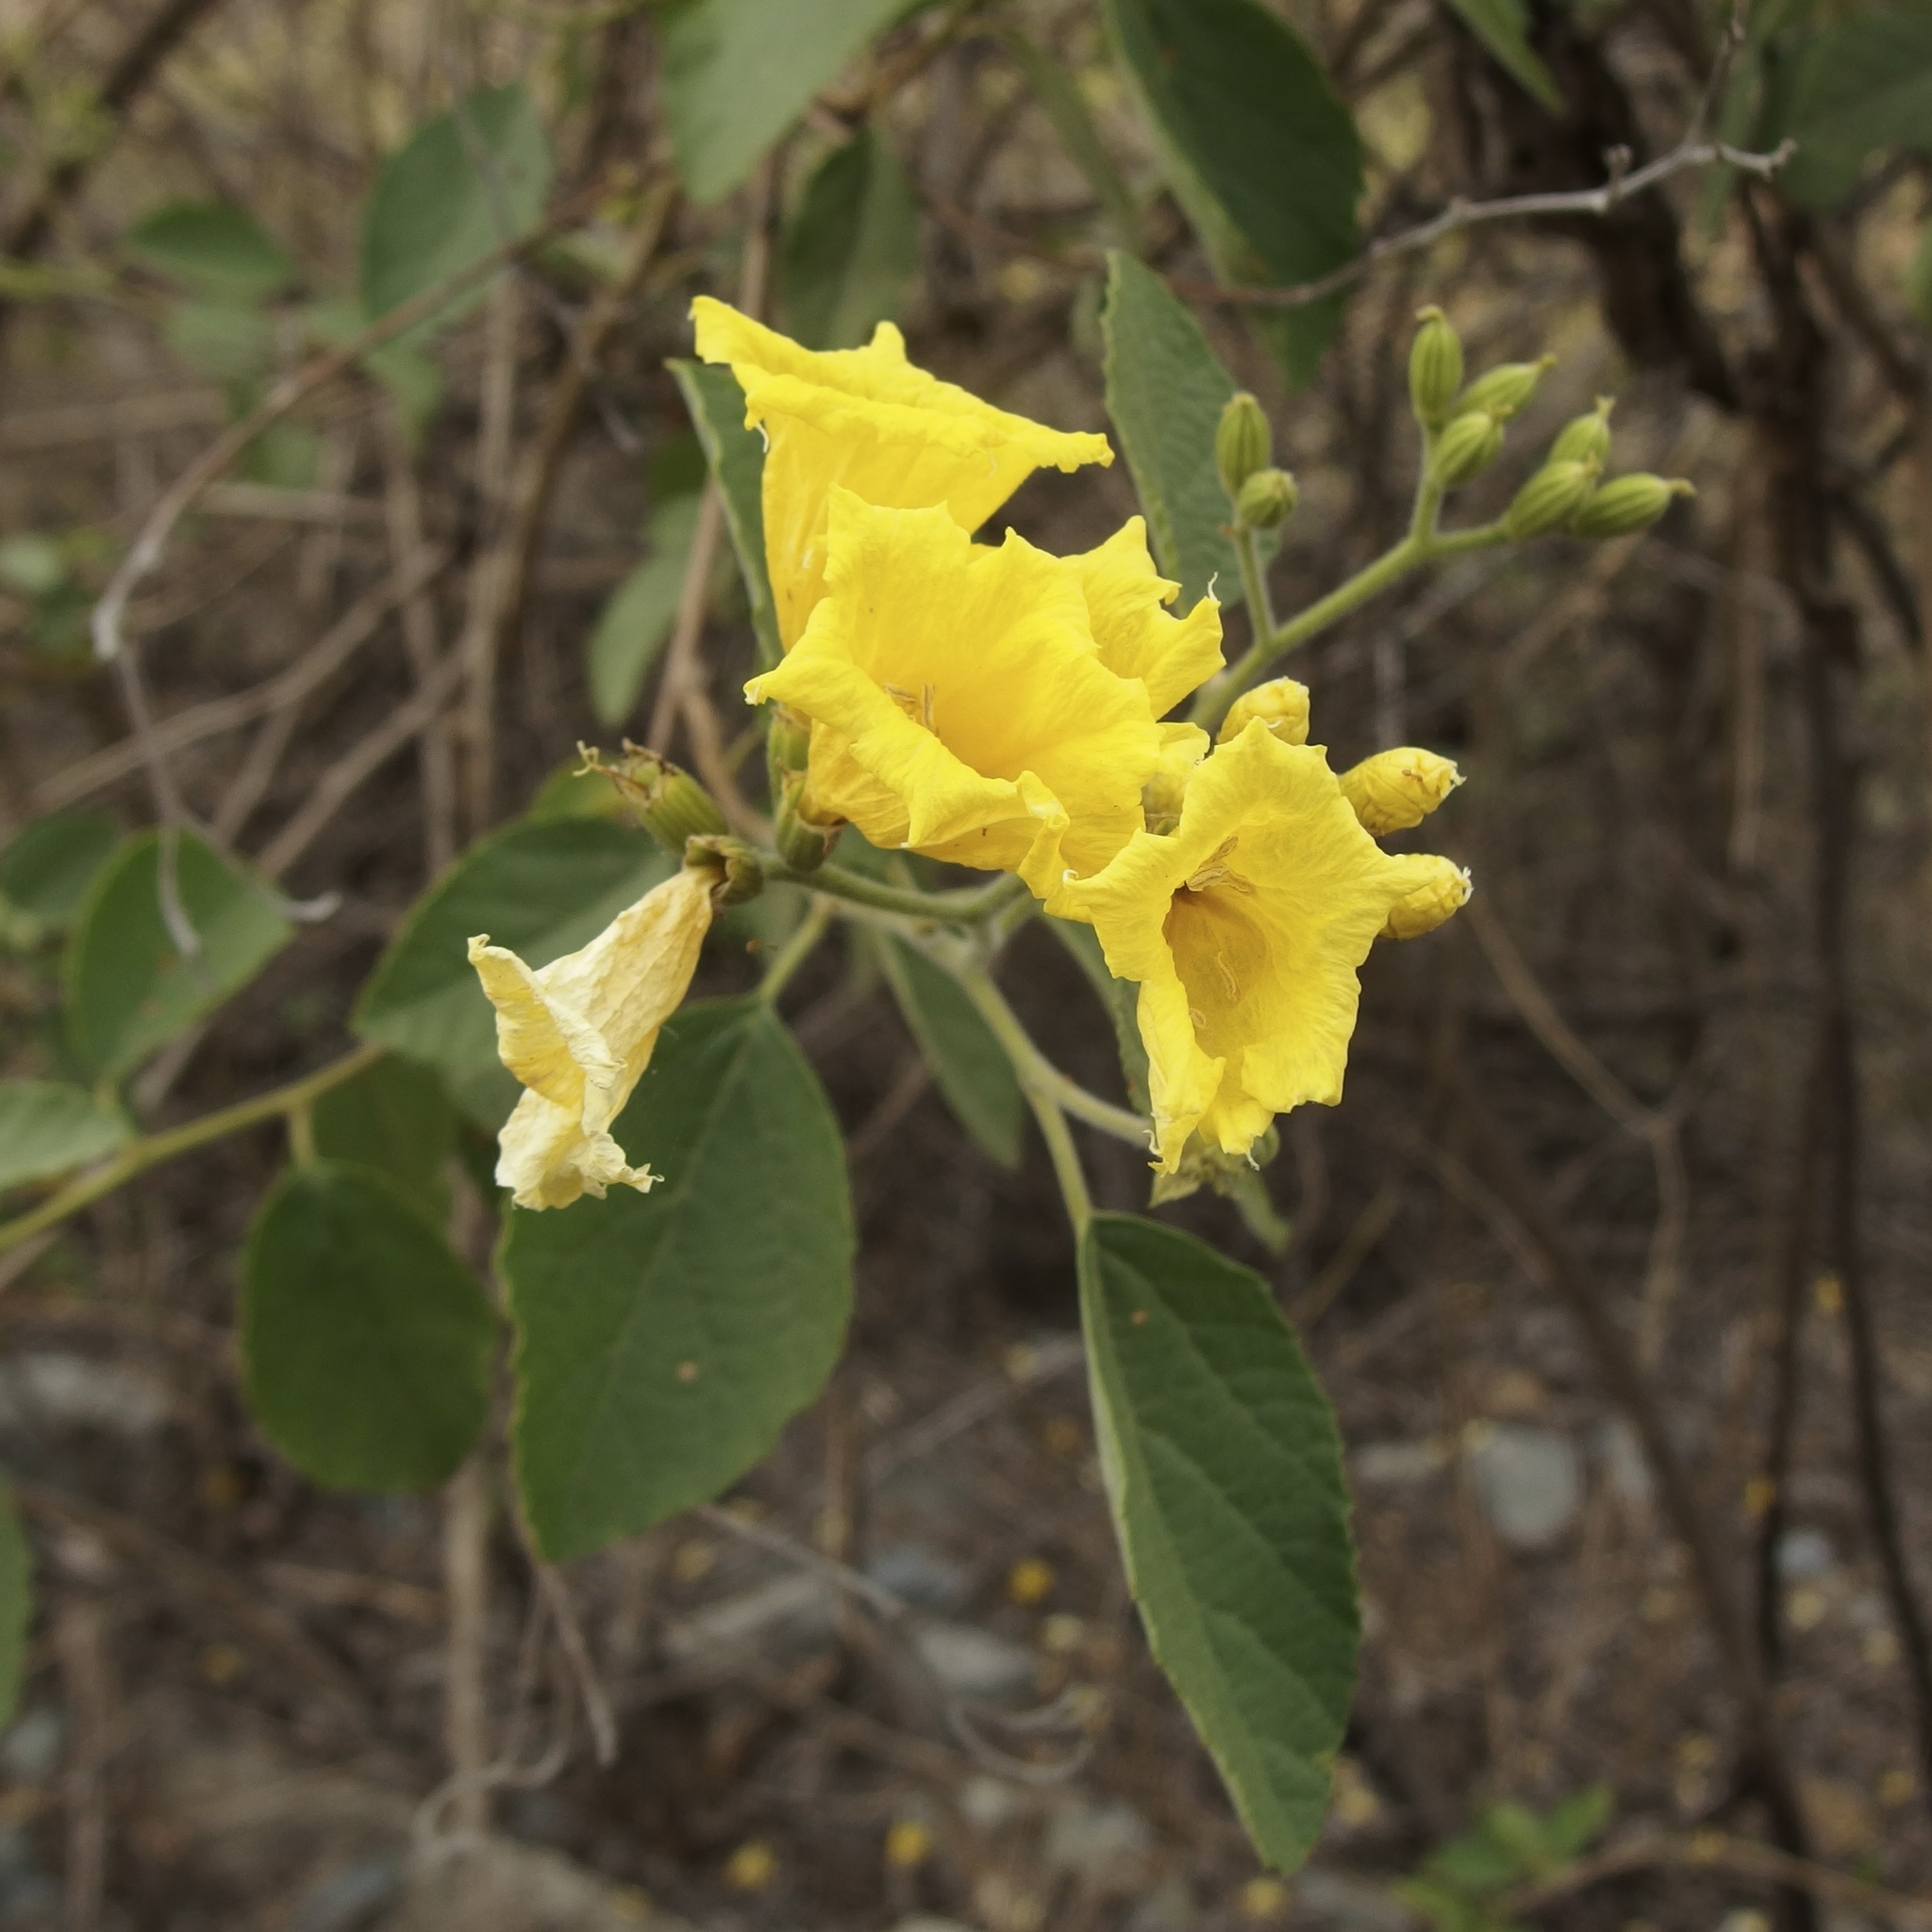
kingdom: Plantae
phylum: Tracheophyta
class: Magnoliopsida
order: Boraginales
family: Cordiaceae
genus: Cordia
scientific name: Cordia lutea
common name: Yellow geiger
